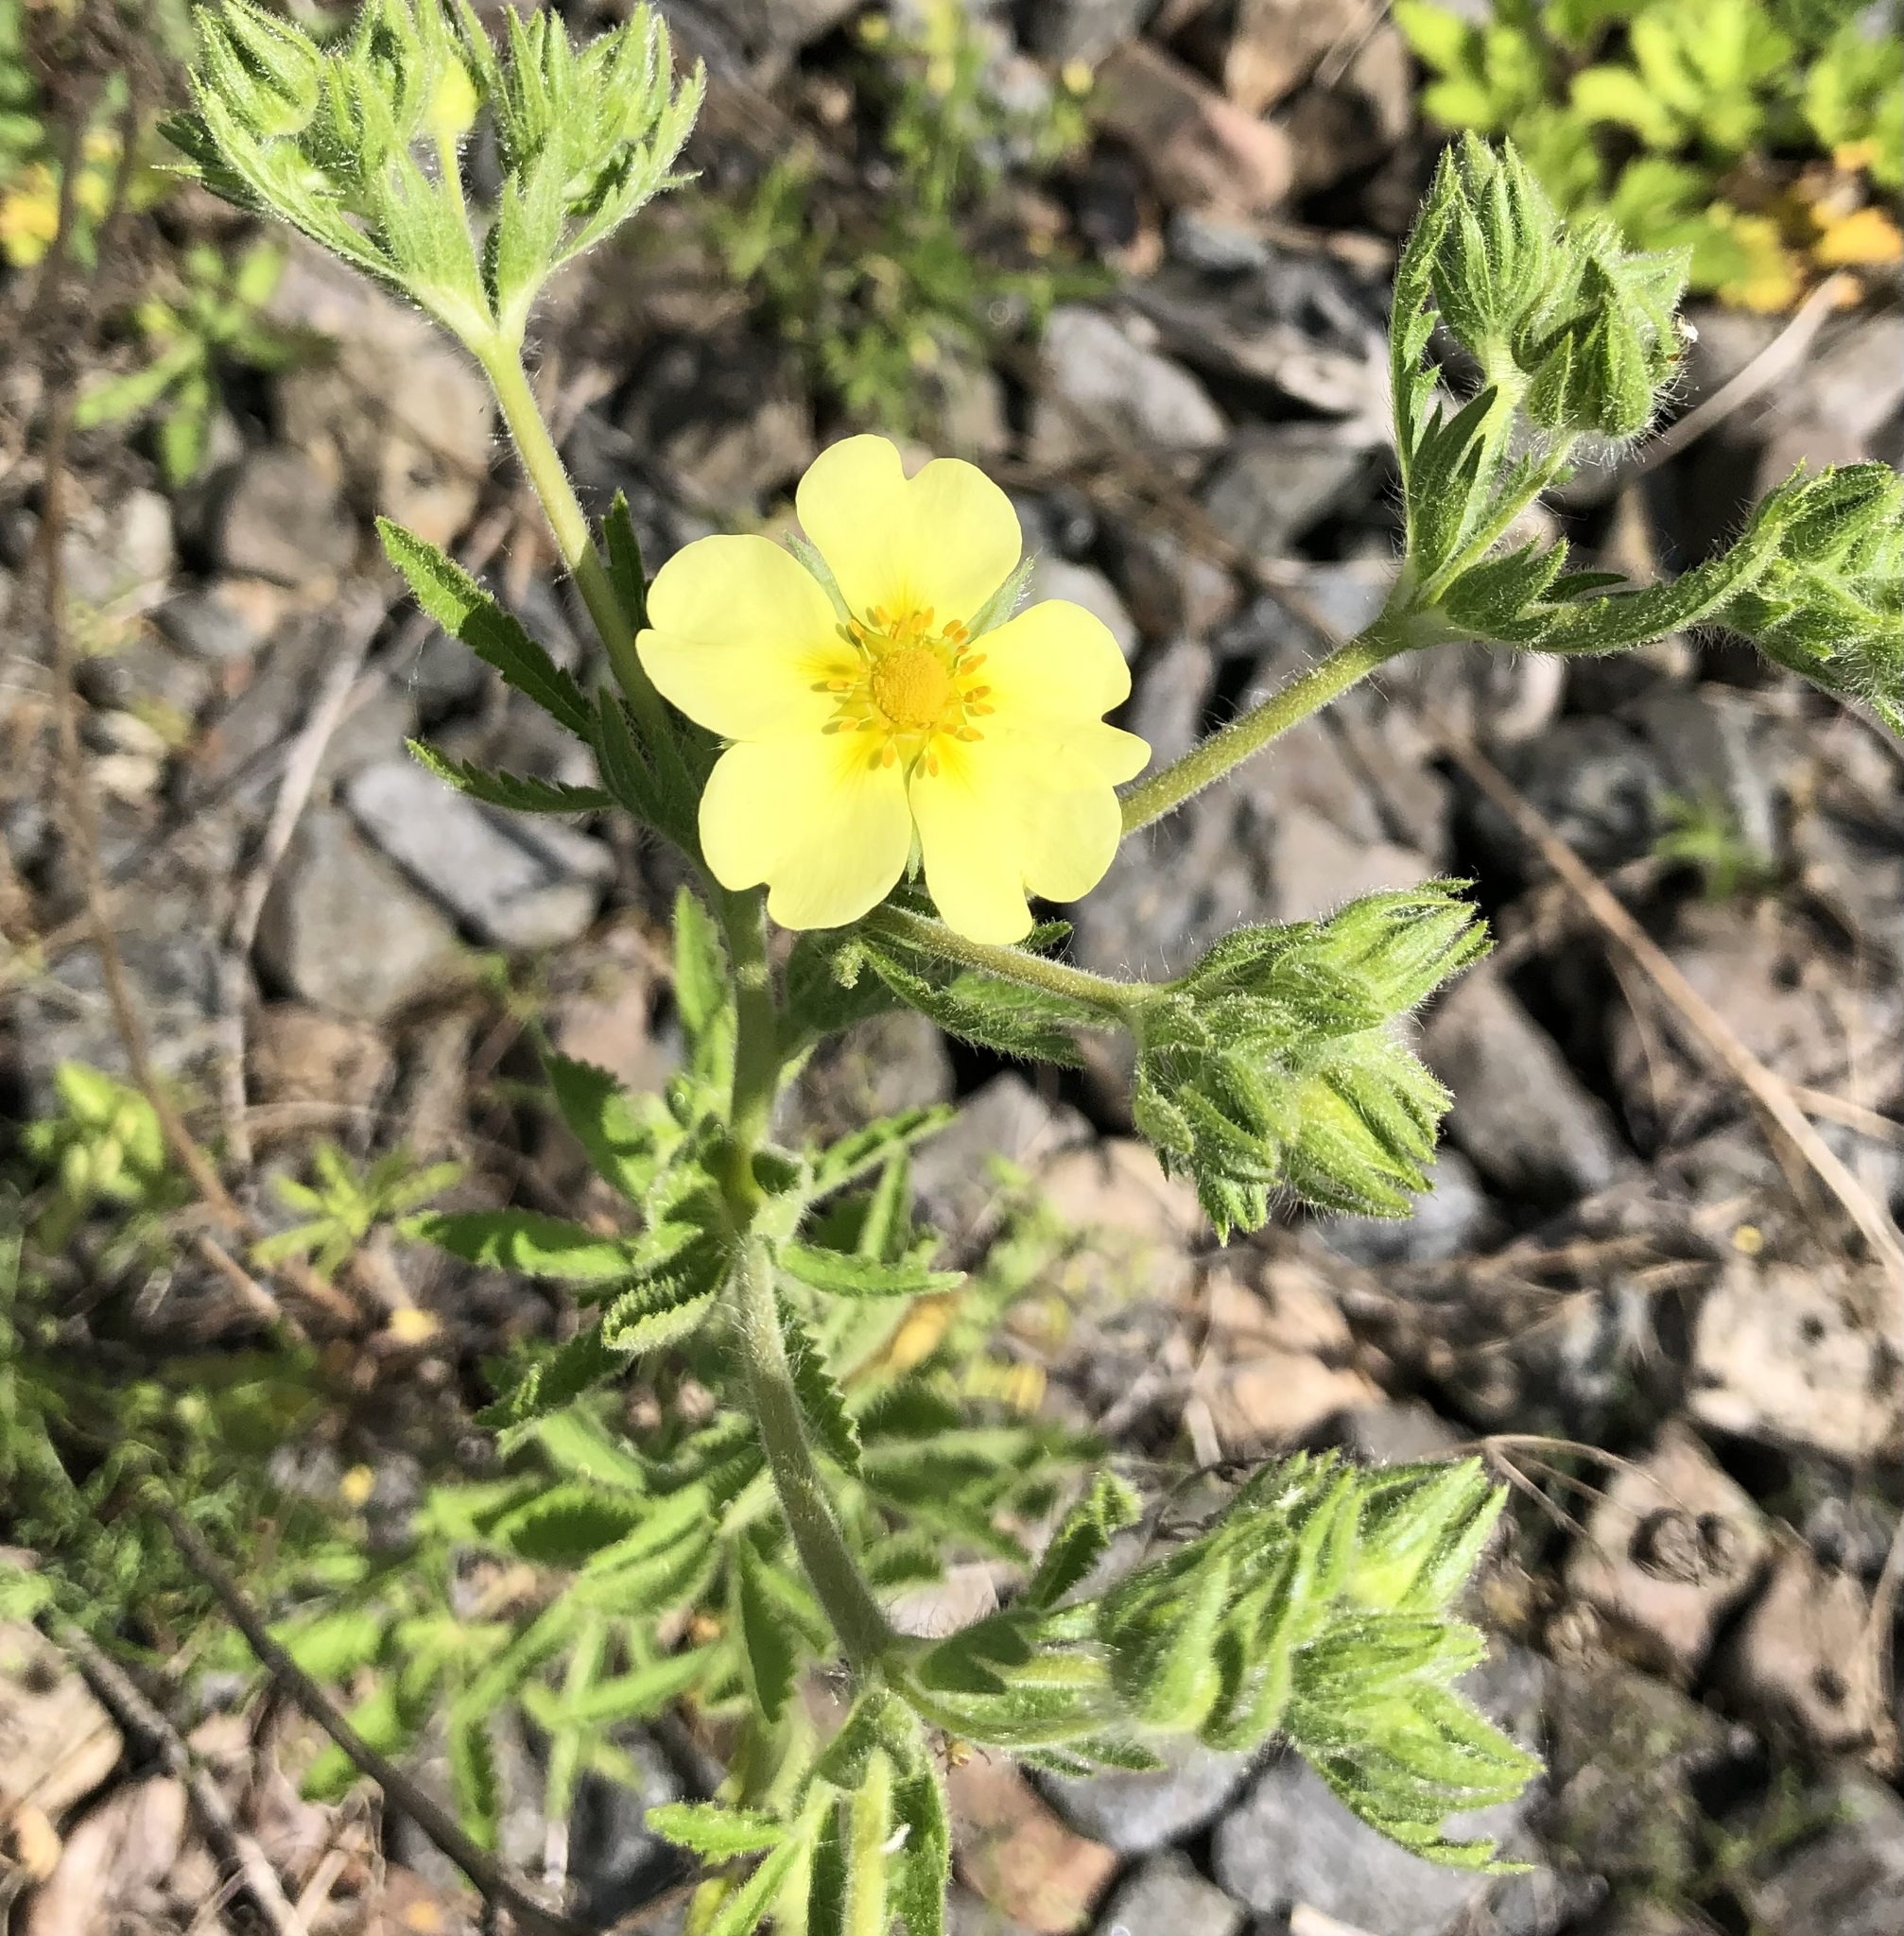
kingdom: Plantae
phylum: Tracheophyta
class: Magnoliopsida
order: Rosales
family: Rosaceae
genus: Potentilla
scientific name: Potentilla recta
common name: Sulphur cinquefoil
